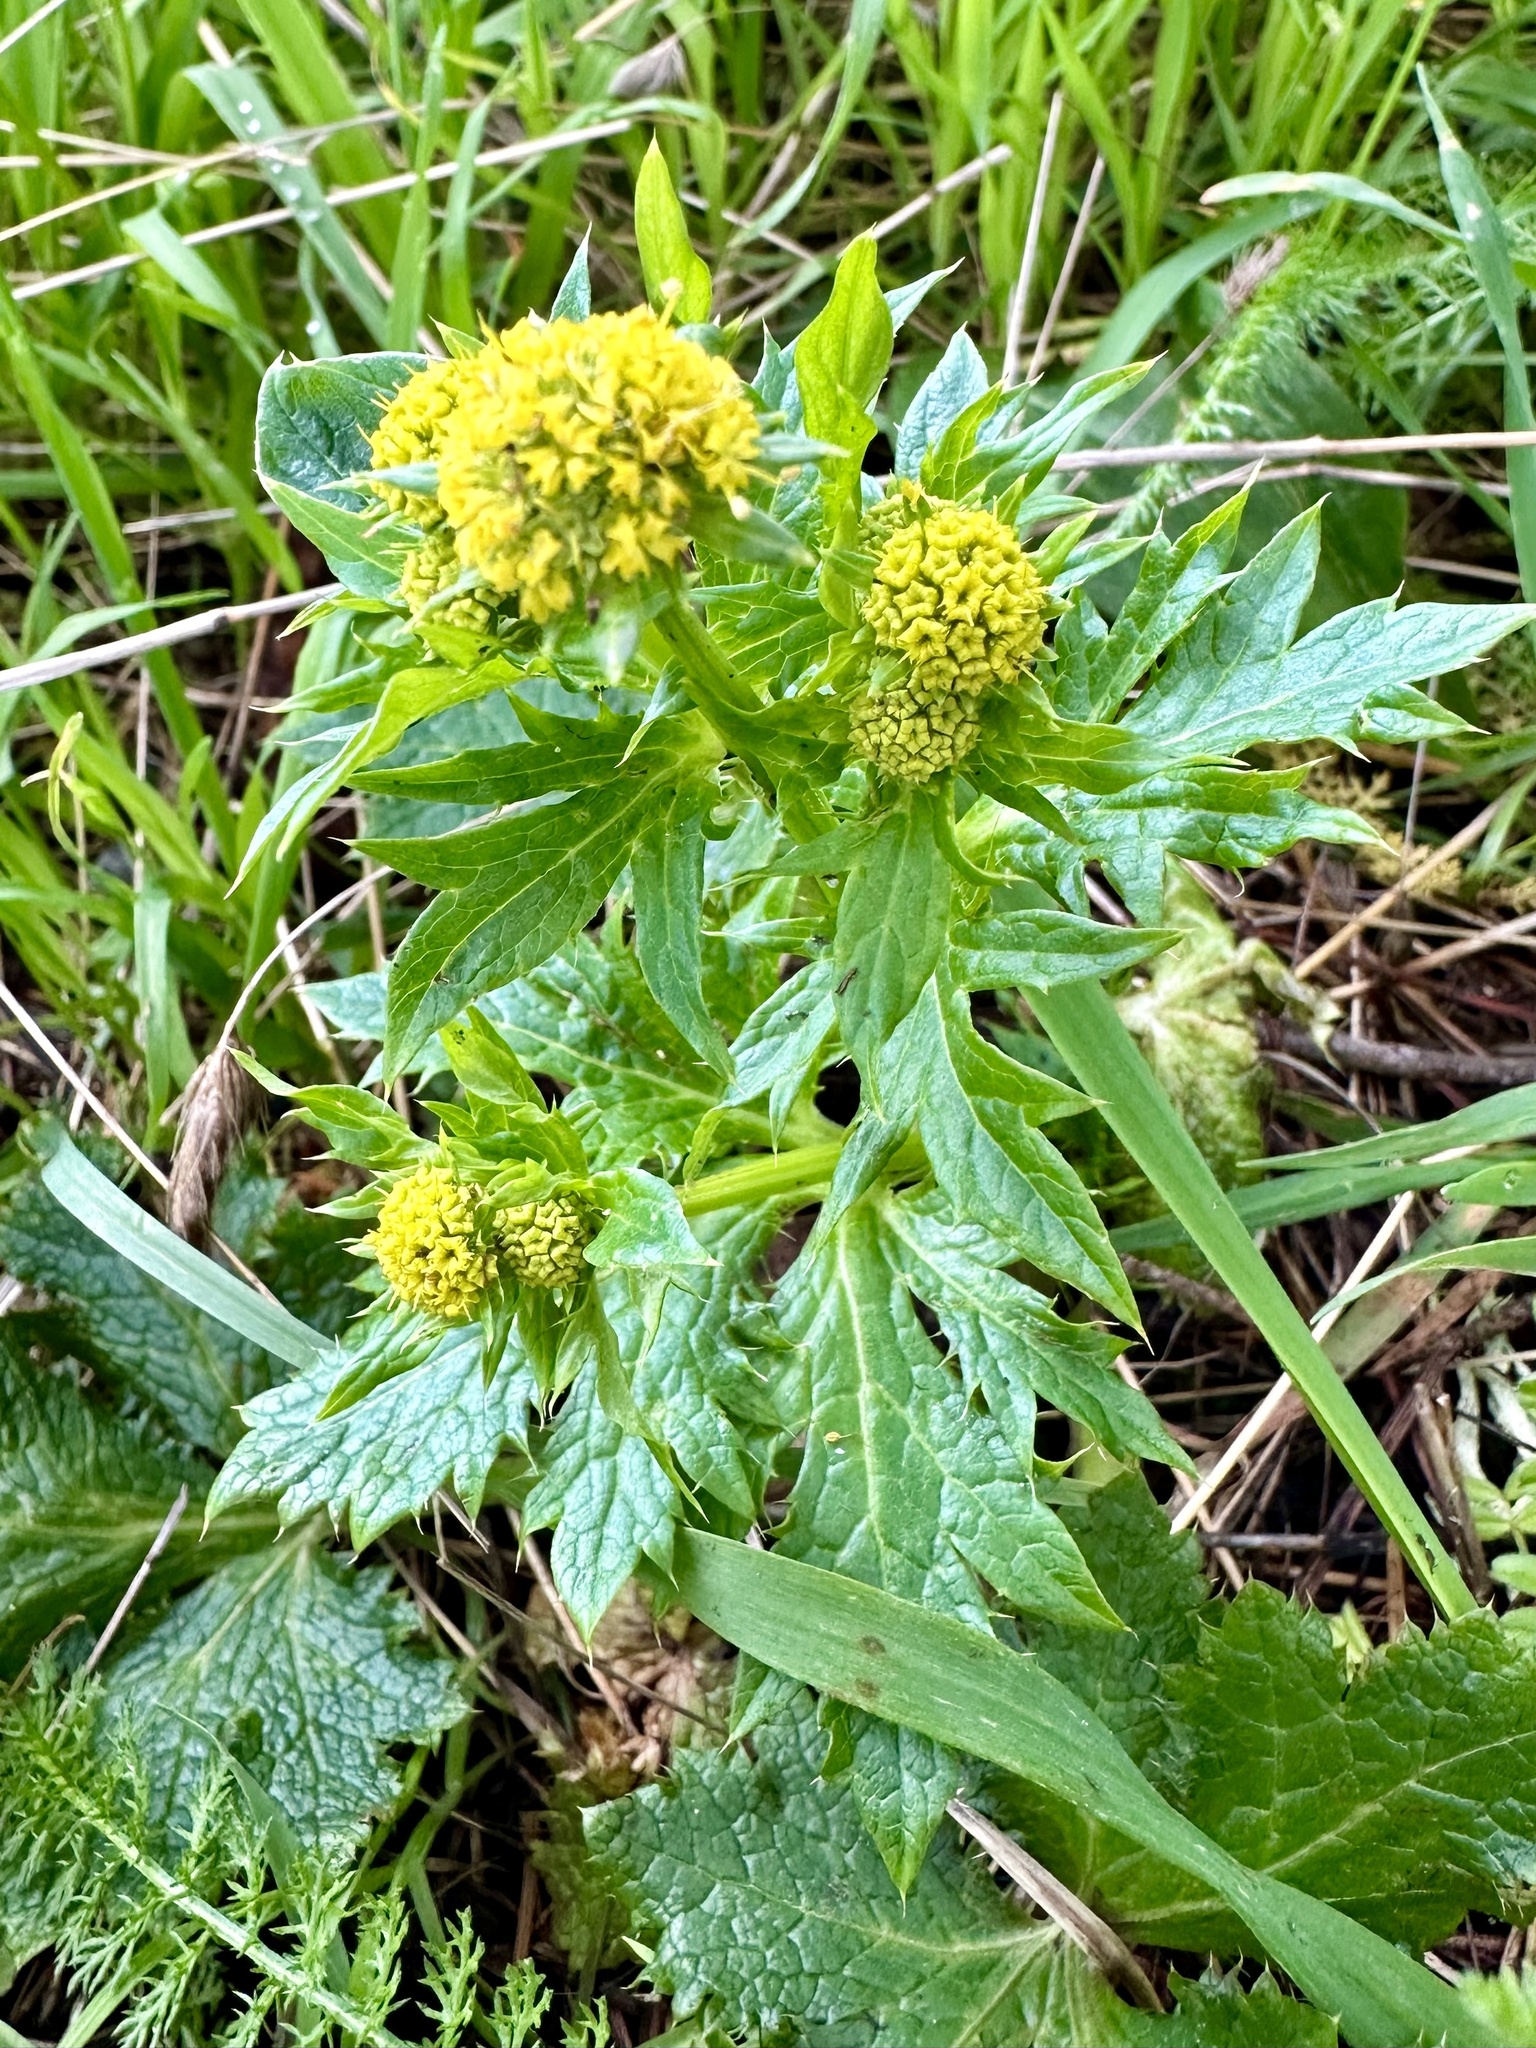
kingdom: Plantae
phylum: Tracheophyta
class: Magnoliopsida
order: Apiales
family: Apiaceae
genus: Sanicula
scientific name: Sanicula crassicaulis
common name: Western snakeroot
